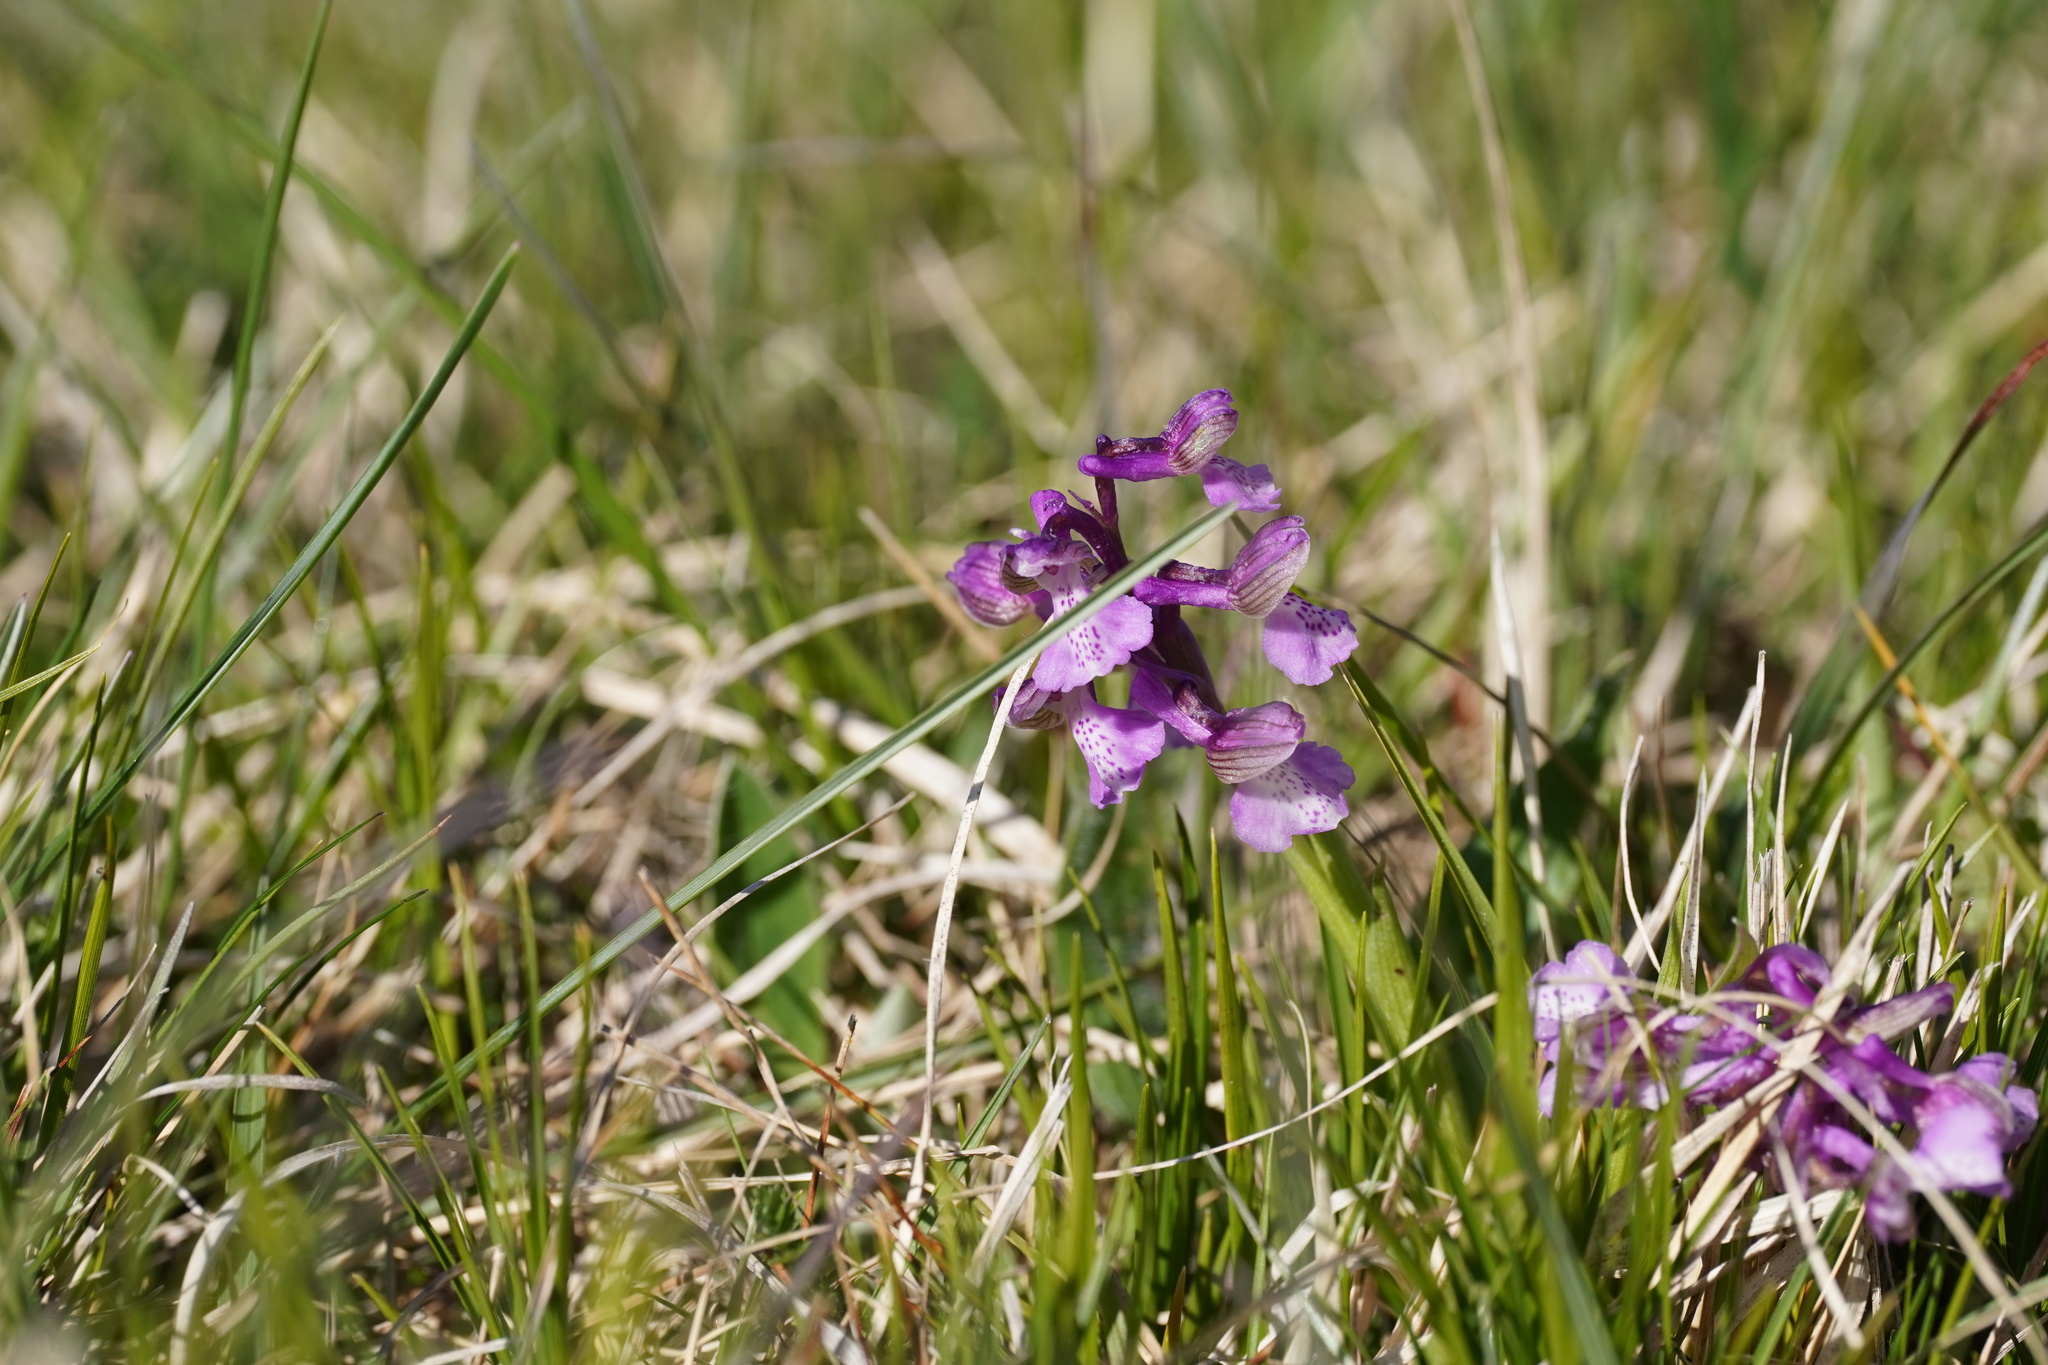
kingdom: Plantae
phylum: Tracheophyta
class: Liliopsida
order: Asparagales
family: Orchidaceae
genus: Anacamptis
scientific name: Anacamptis morio
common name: Green-winged orchid
